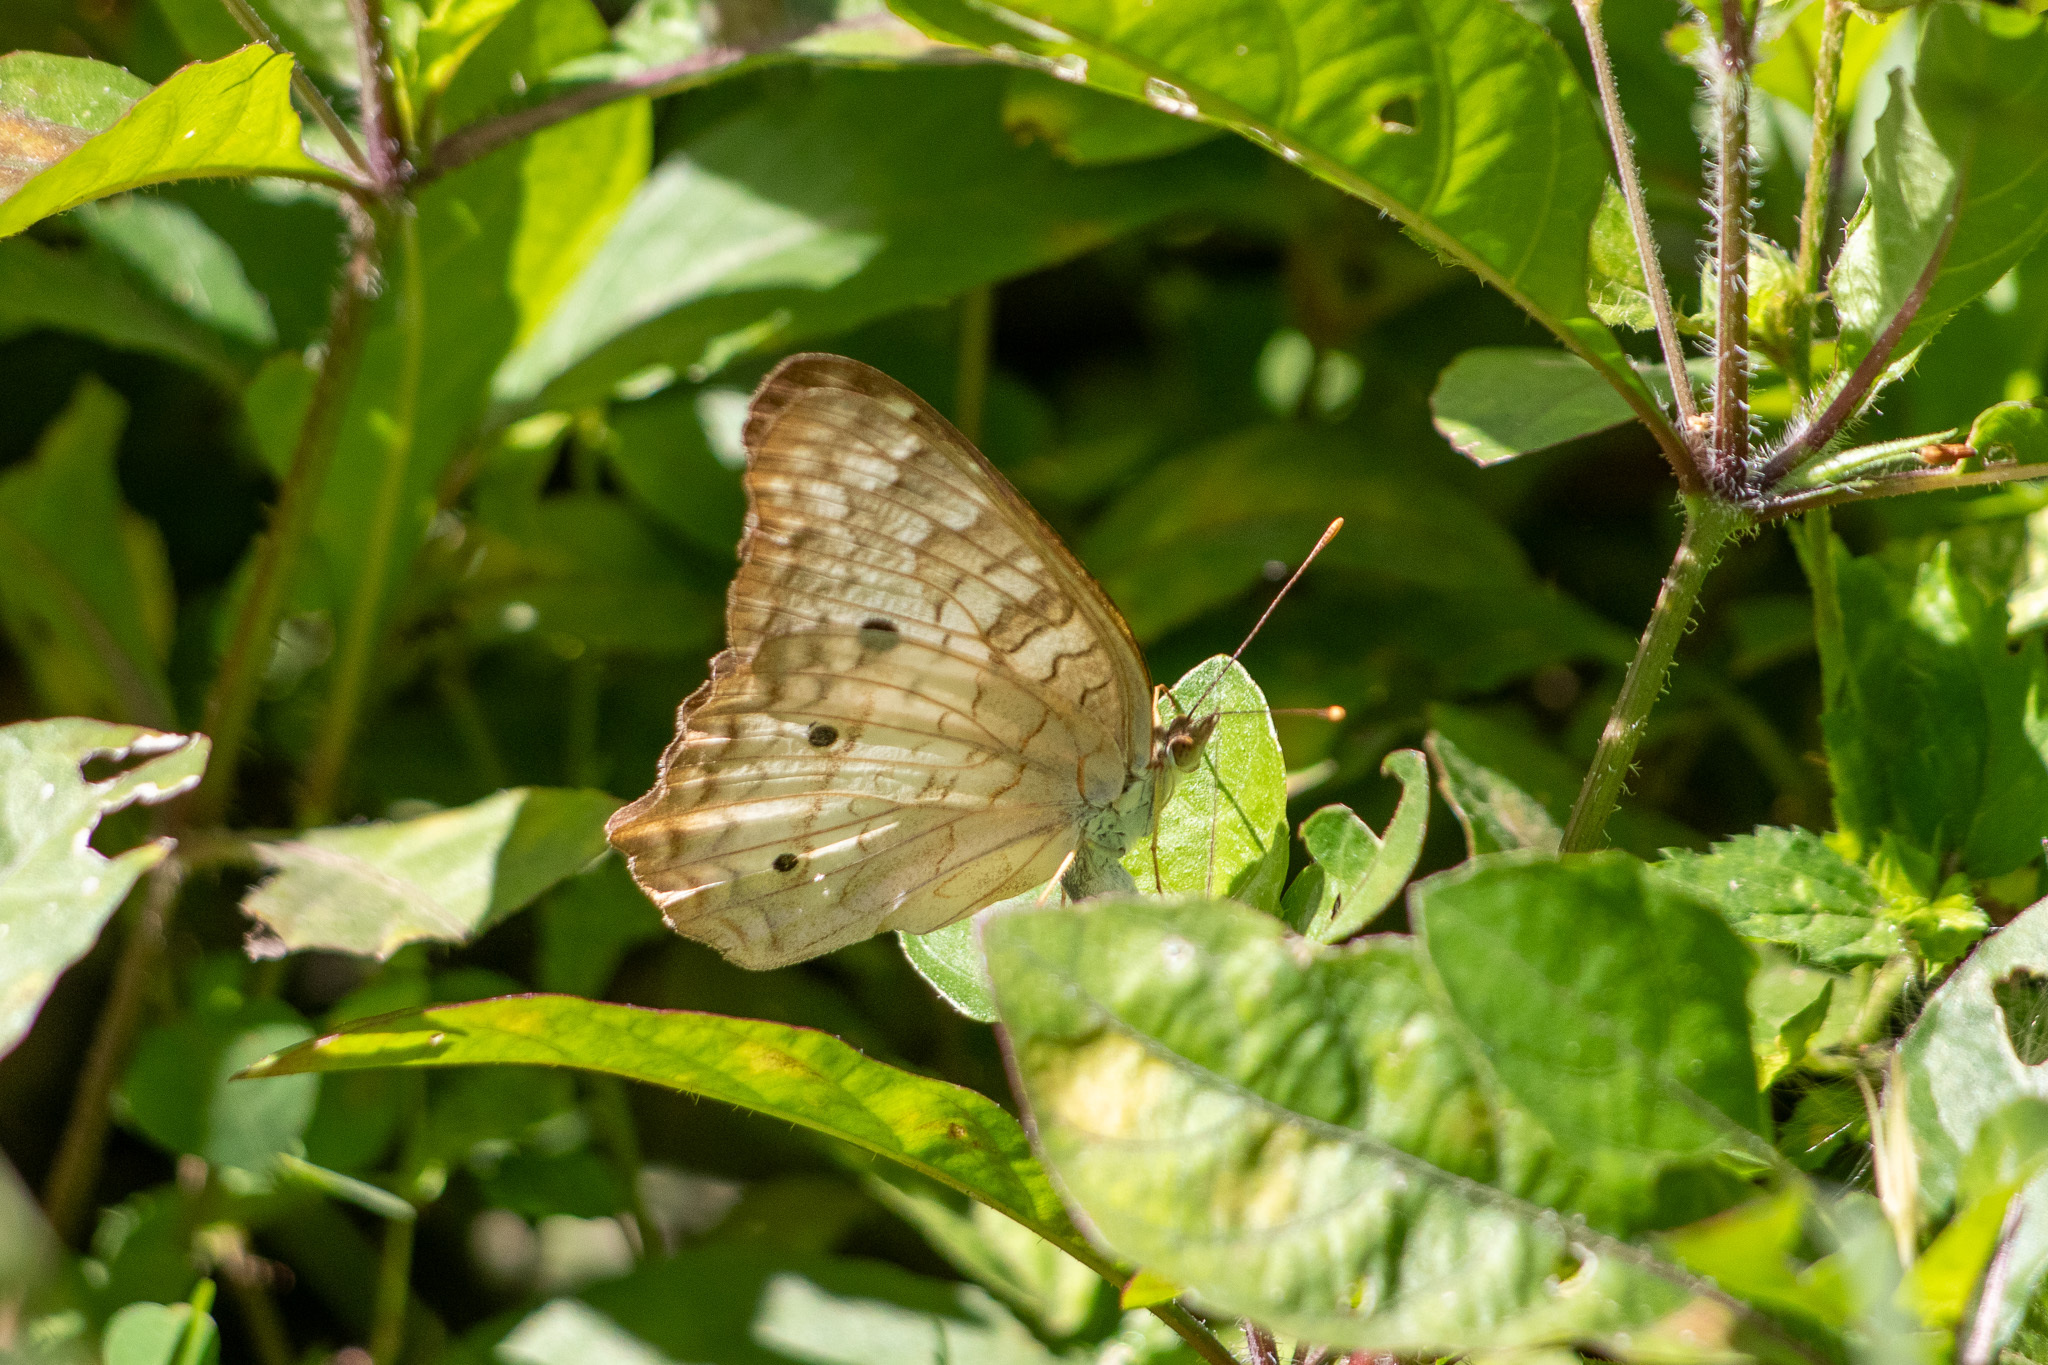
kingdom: Animalia
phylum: Arthropoda
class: Insecta
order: Lepidoptera
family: Nymphalidae
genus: Anartia
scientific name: Anartia jatrophae
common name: White peacock
